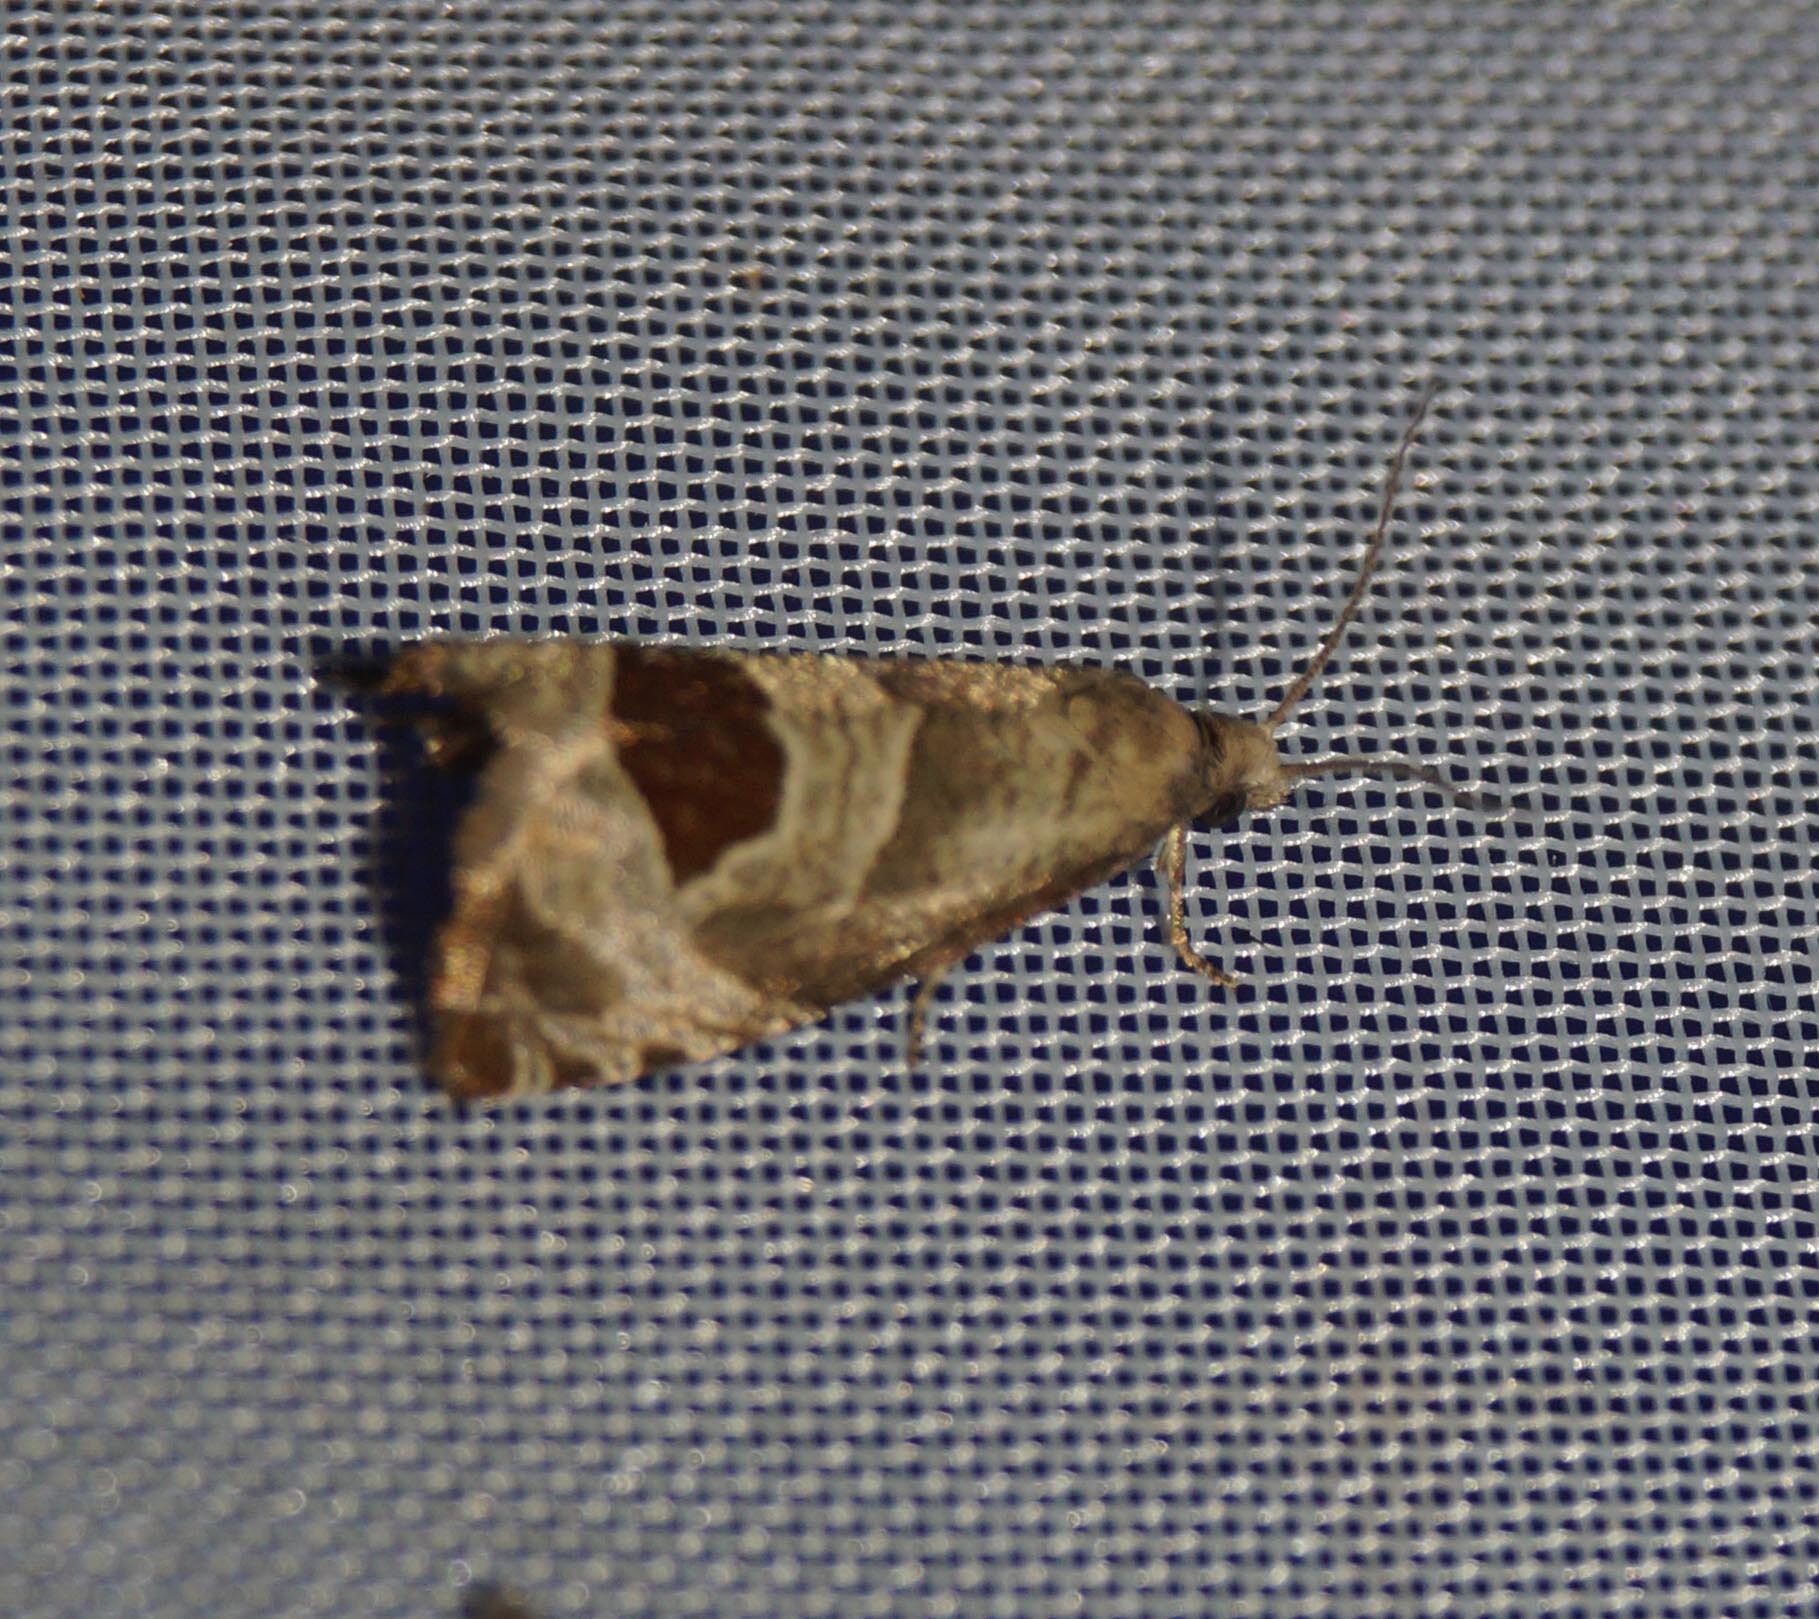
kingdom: Animalia
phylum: Arthropoda
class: Insecta
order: Lepidoptera
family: Tortricidae
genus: Notocelia
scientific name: Notocelia uddmanniana
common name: Bramble shoot moth
